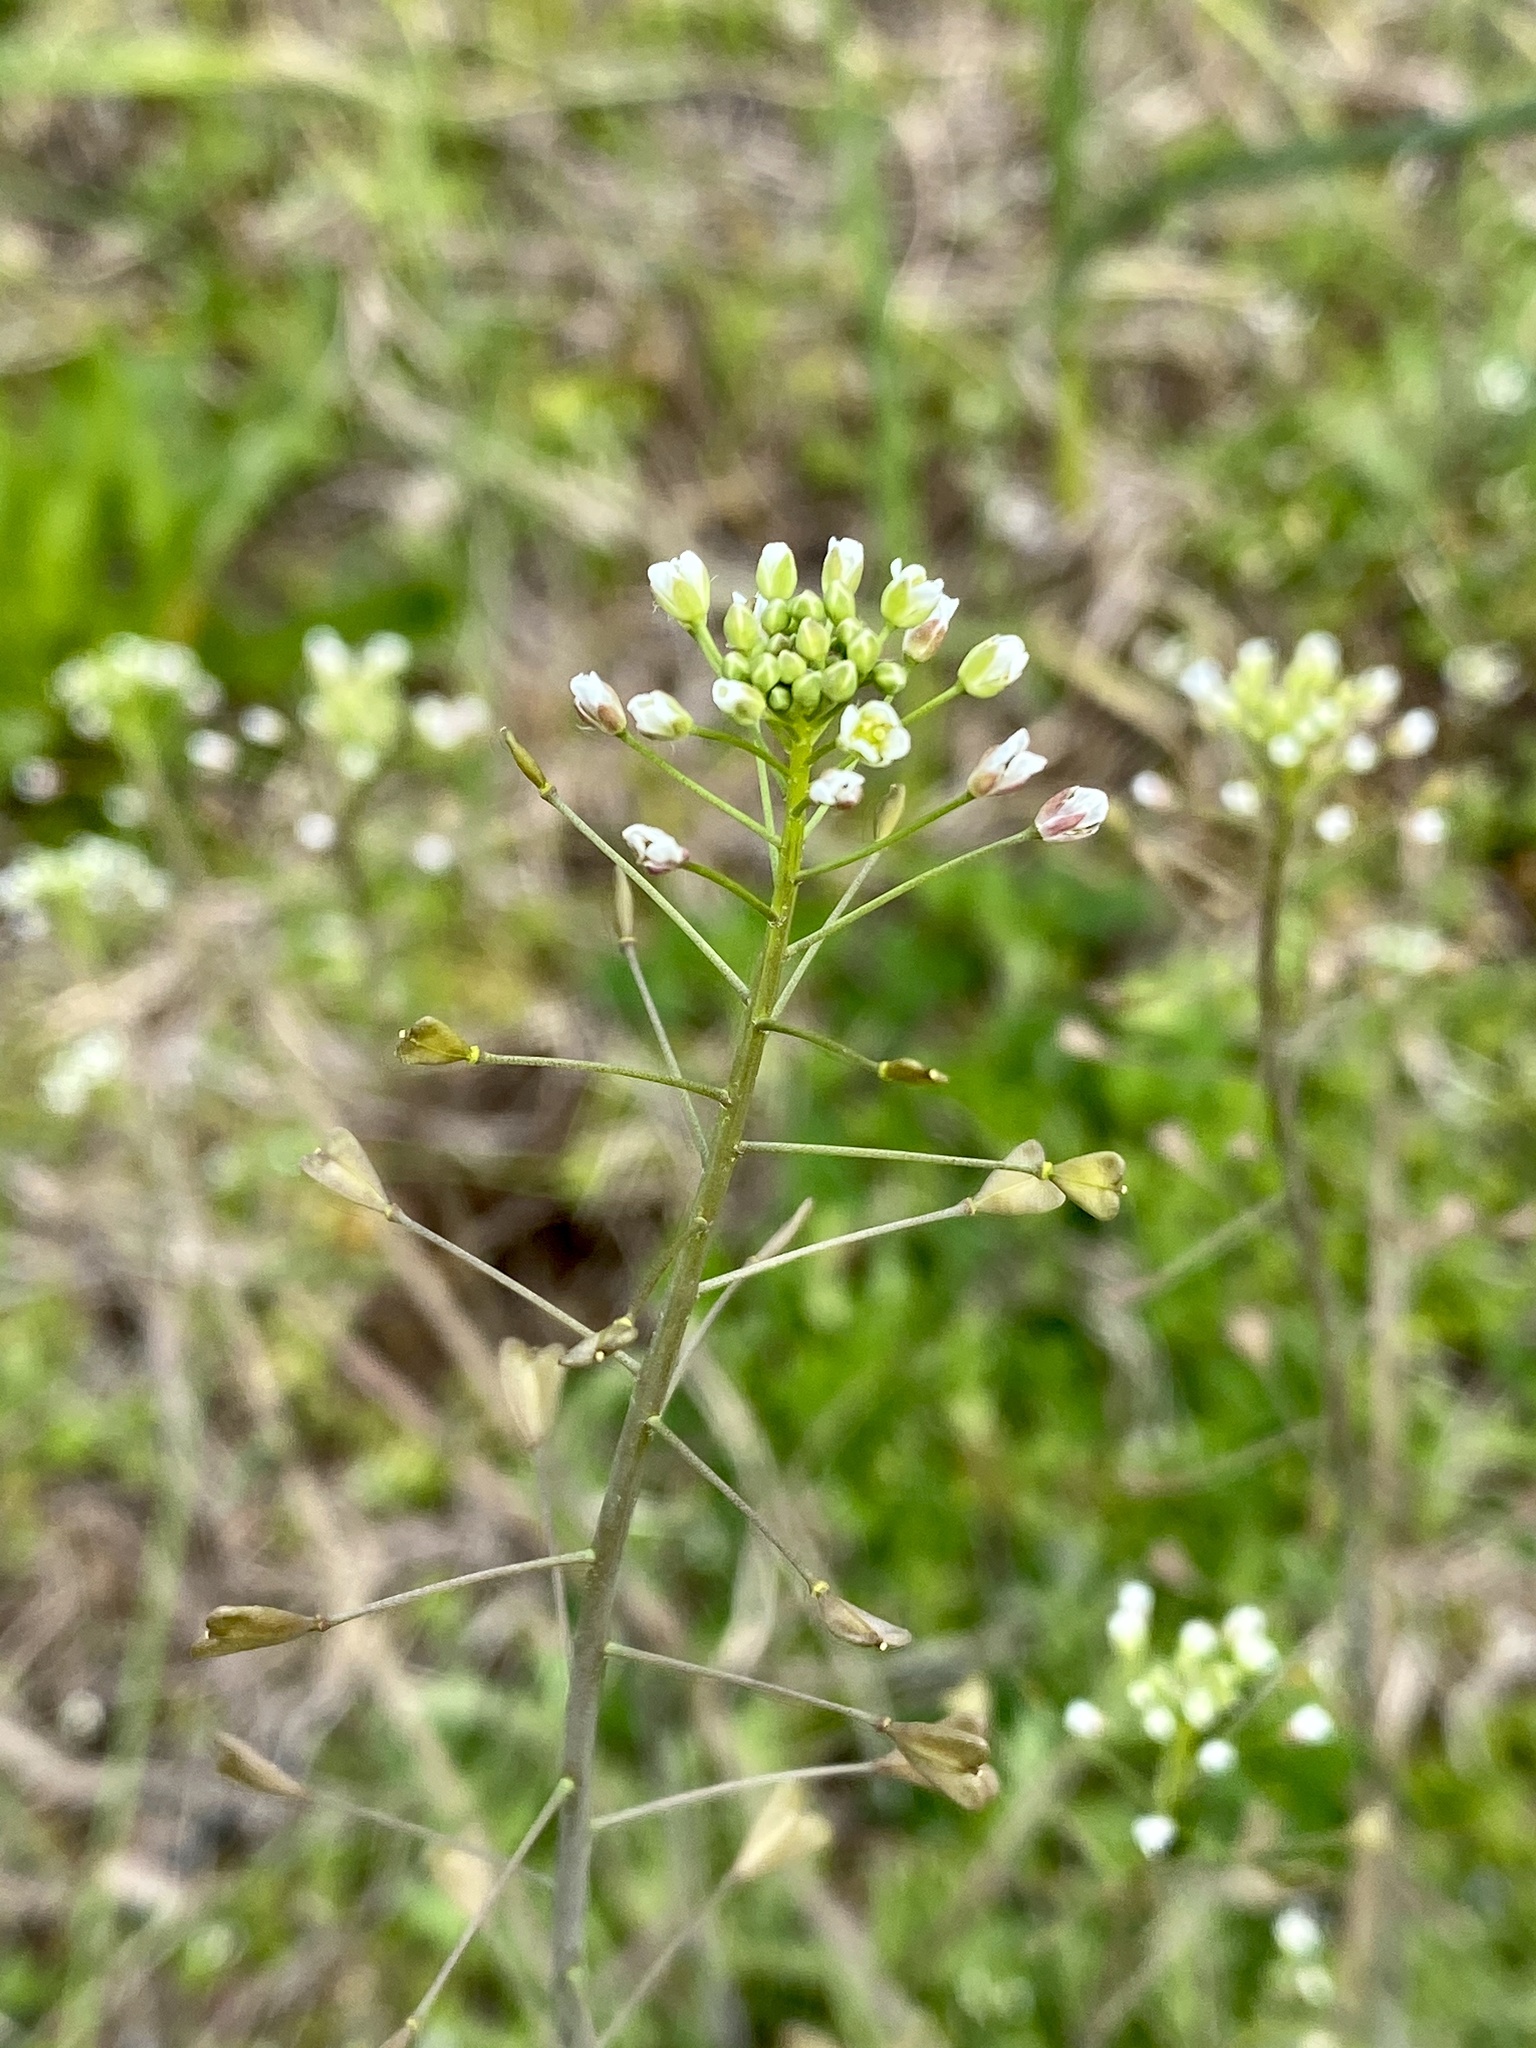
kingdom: Plantae
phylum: Tracheophyta
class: Magnoliopsida
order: Brassicales
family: Brassicaceae
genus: Capsella
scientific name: Capsella bursa-pastoris
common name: Shepherd's purse
